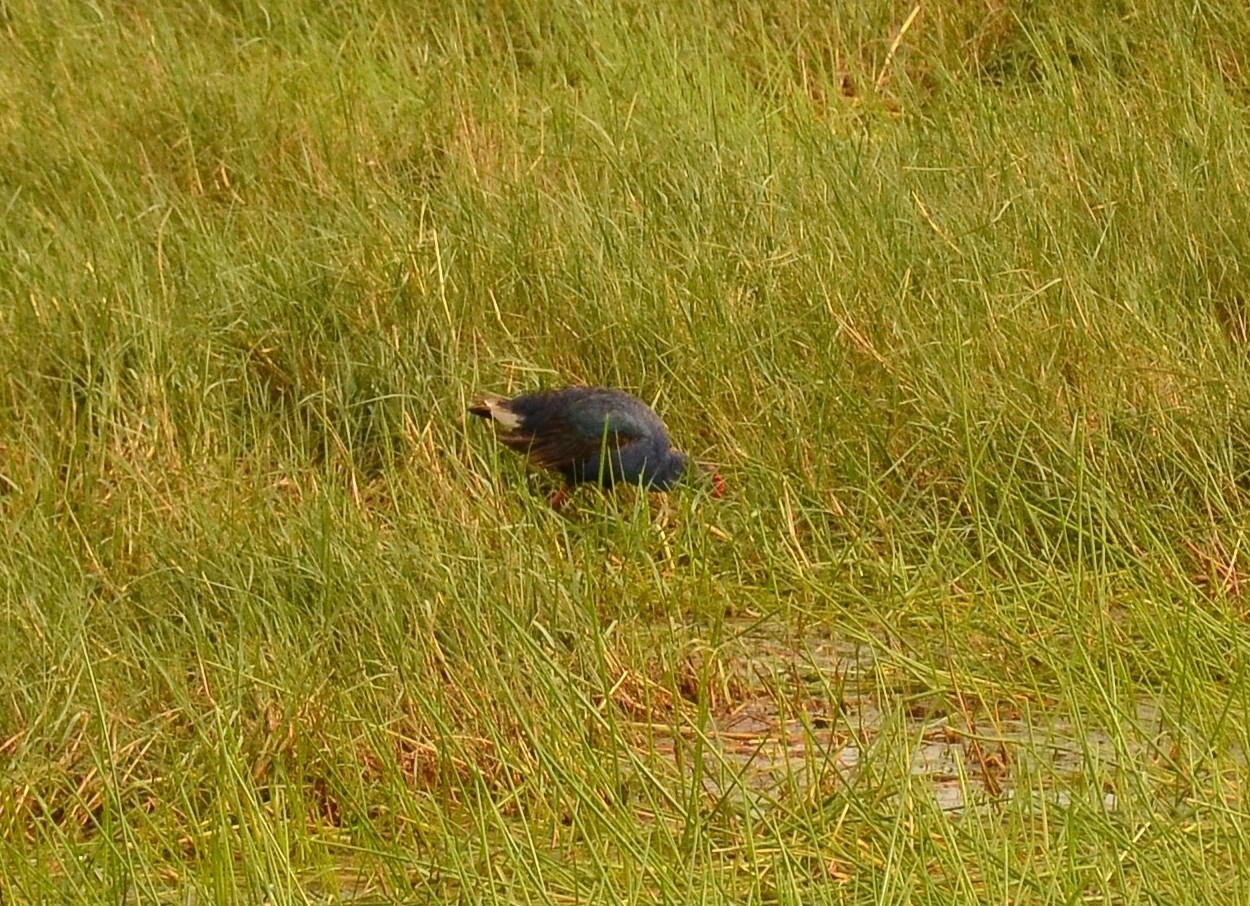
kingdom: Animalia
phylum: Chordata
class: Aves
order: Gruiformes
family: Rallidae
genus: Porphyrio
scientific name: Porphyrio porphyrio
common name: Purple swamphen
